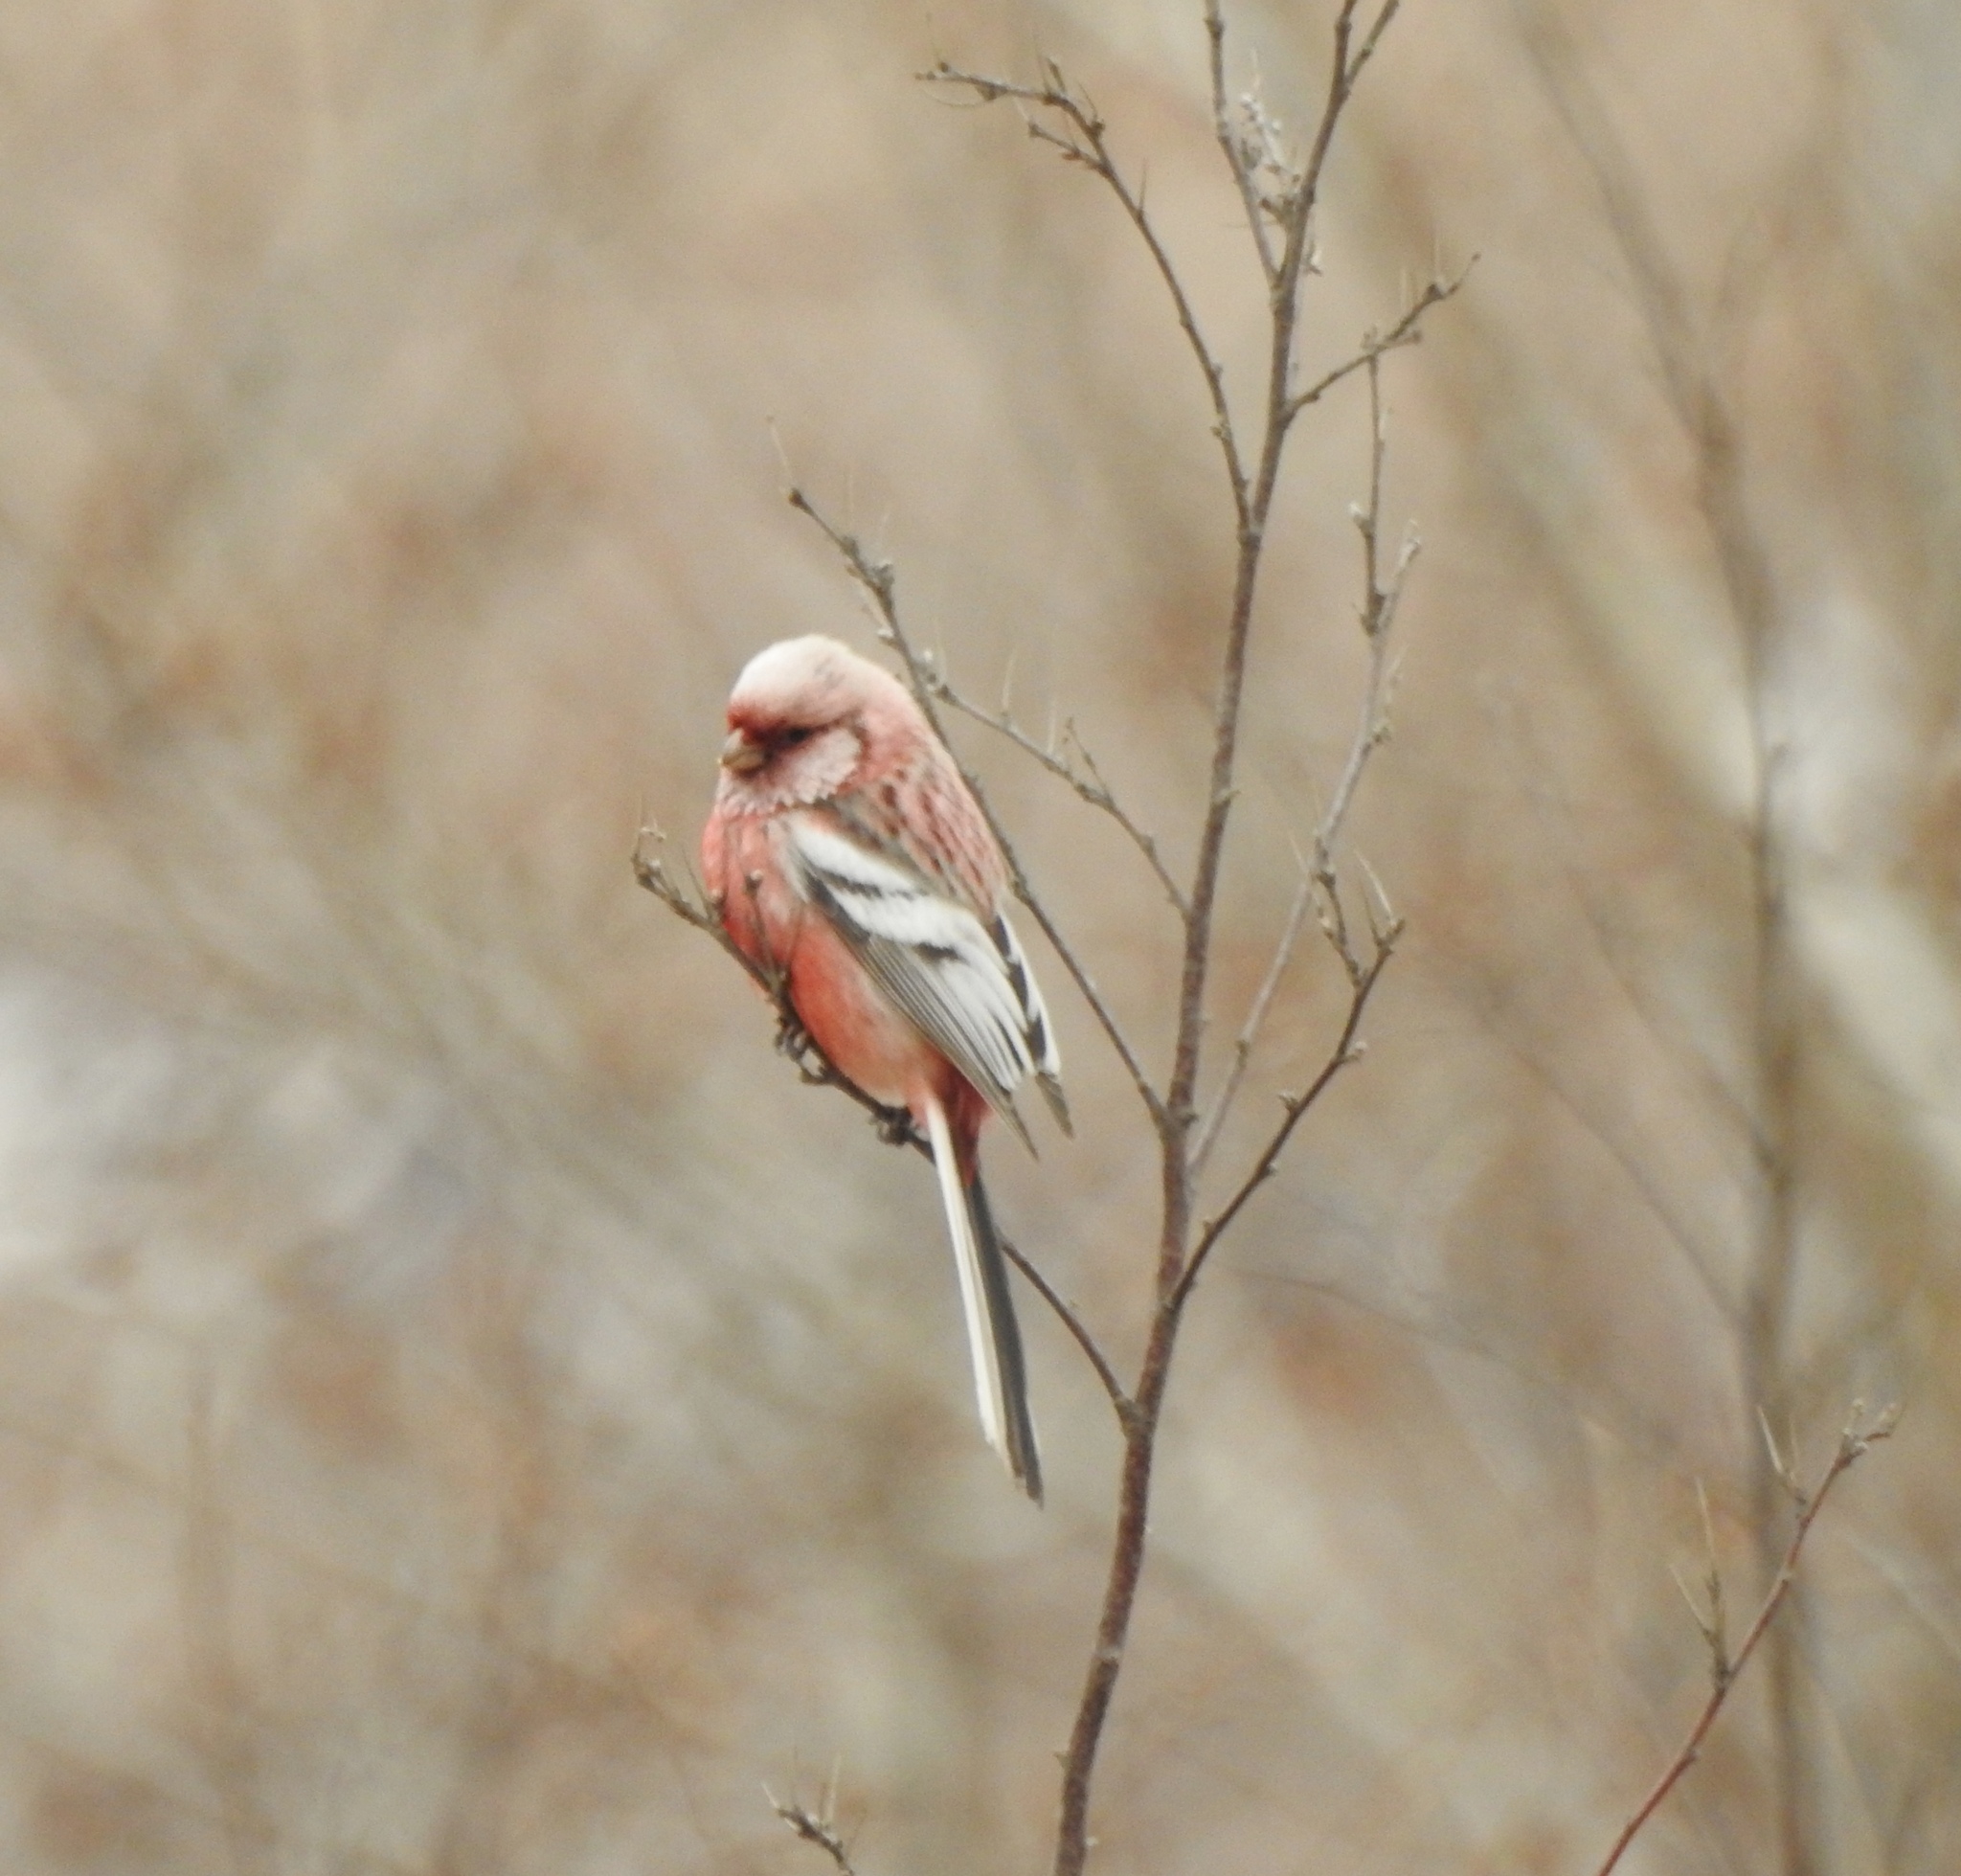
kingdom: Animalia
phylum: Chordata
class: Aves
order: Passeriformes
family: Fringillidae
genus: Carpodacus
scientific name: Carpodacus sibiricus
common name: Long-tailed rosefinch
